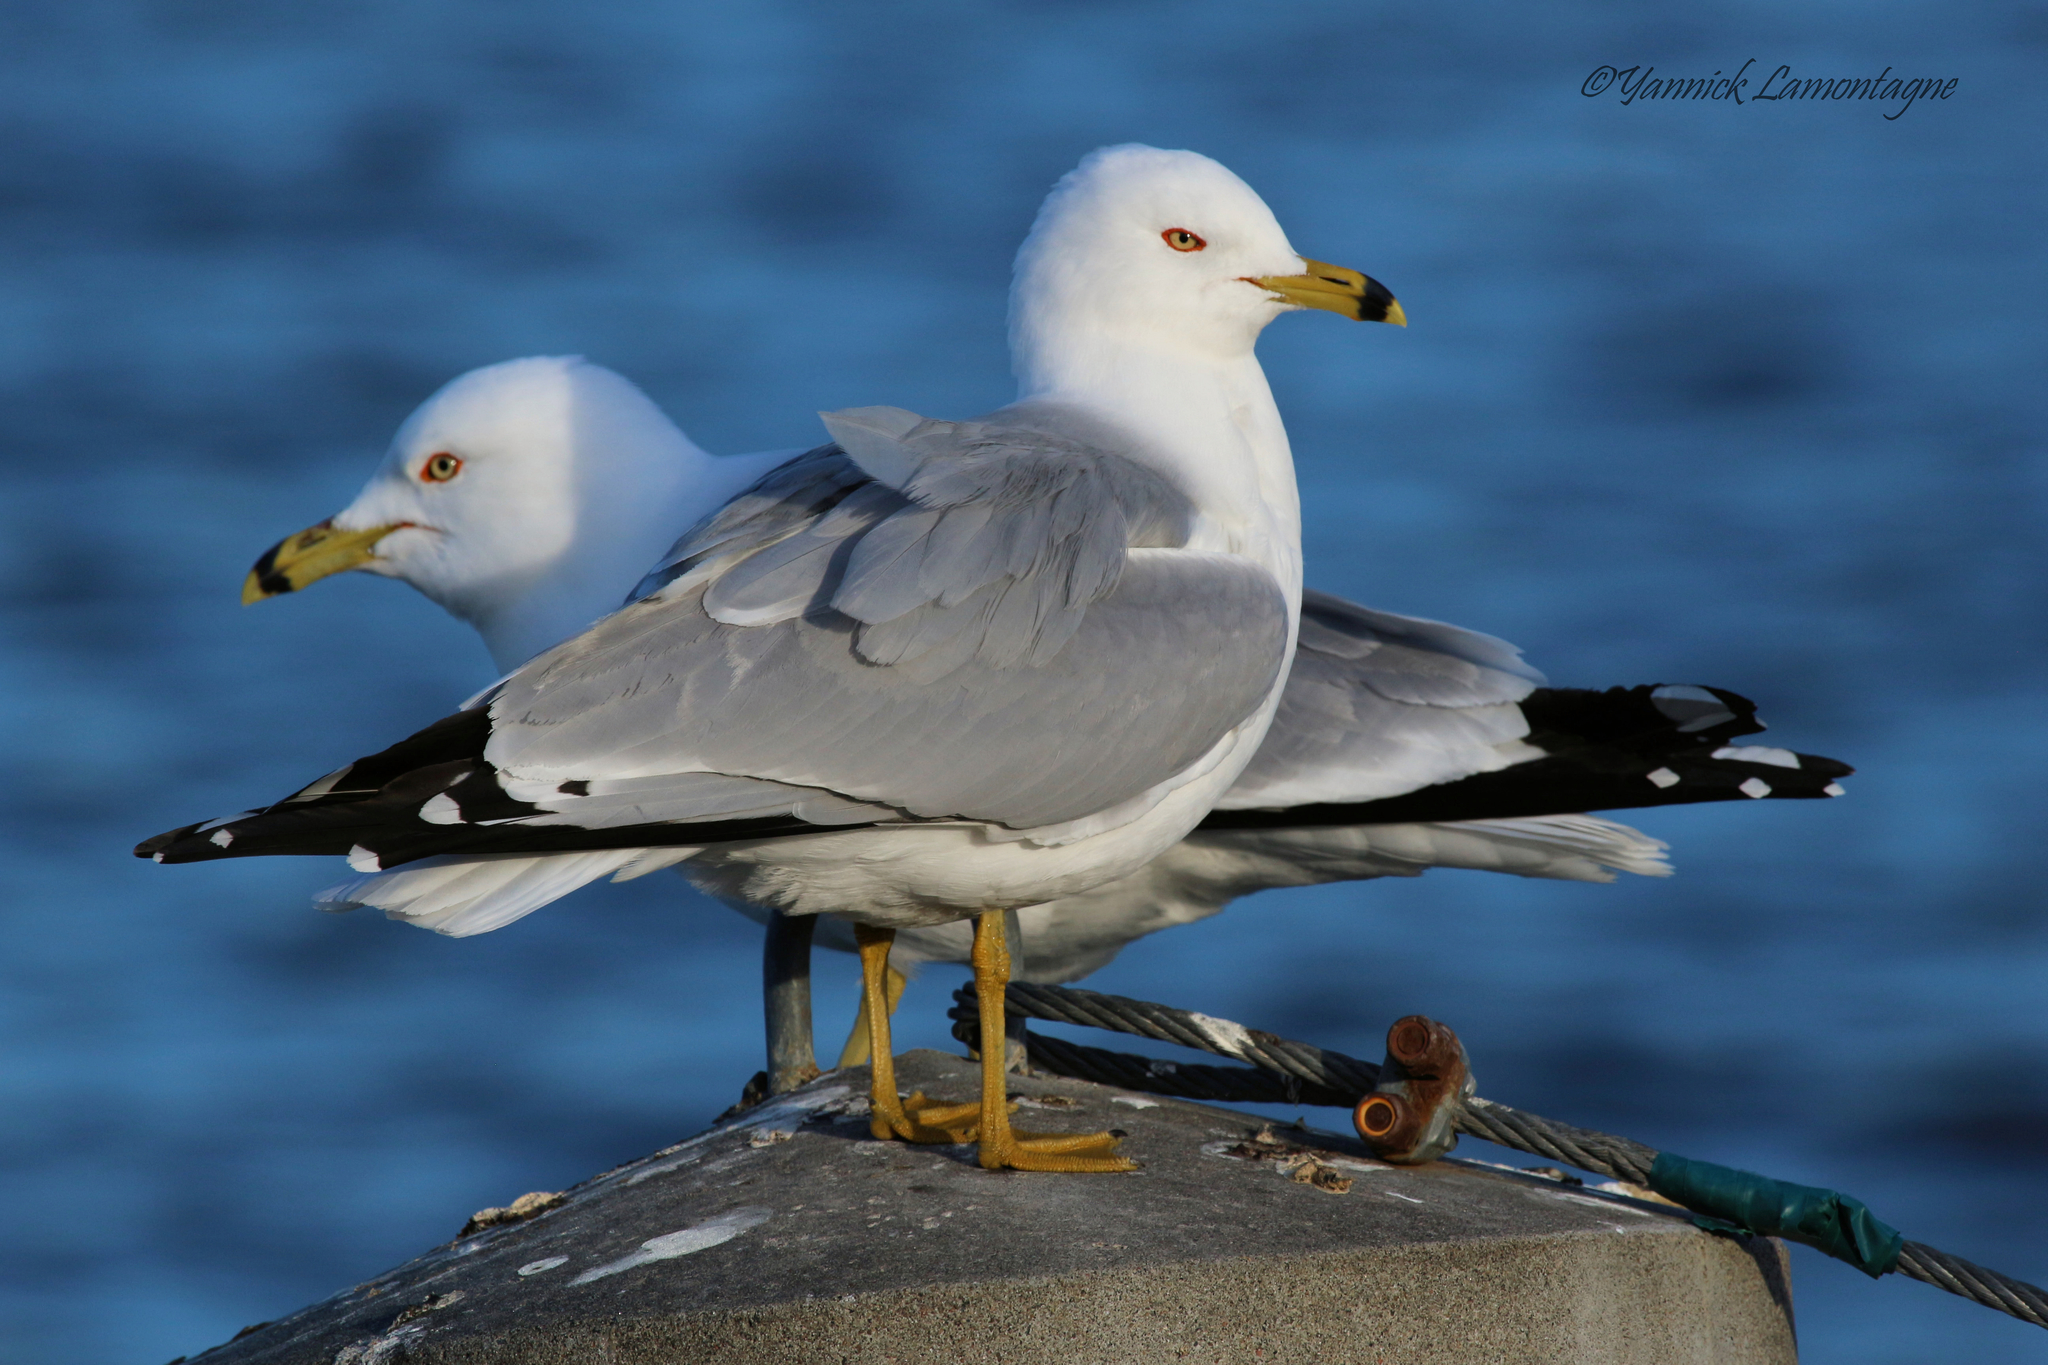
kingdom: Animalia
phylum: Chordata
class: Aves
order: Charadriiformes
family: Laridae
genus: Larus
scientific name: Larus delawarensis
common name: Ring-billed gull
